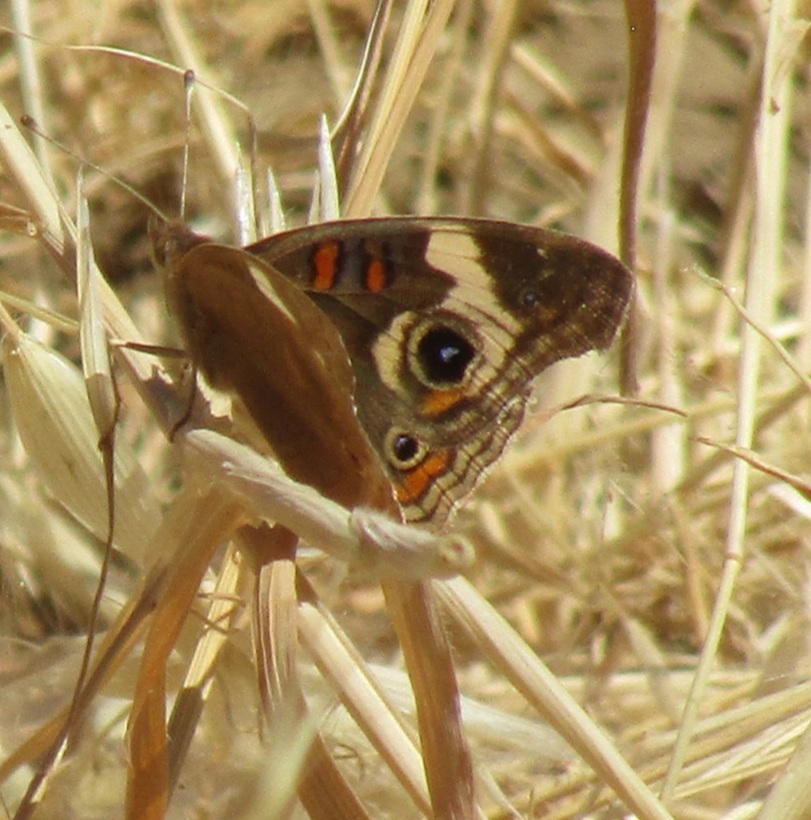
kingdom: Animalia
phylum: Arthropoda
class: Insecta
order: Lepidoptera
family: Nymphalidae
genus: Junonia
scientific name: Junonia grisea
